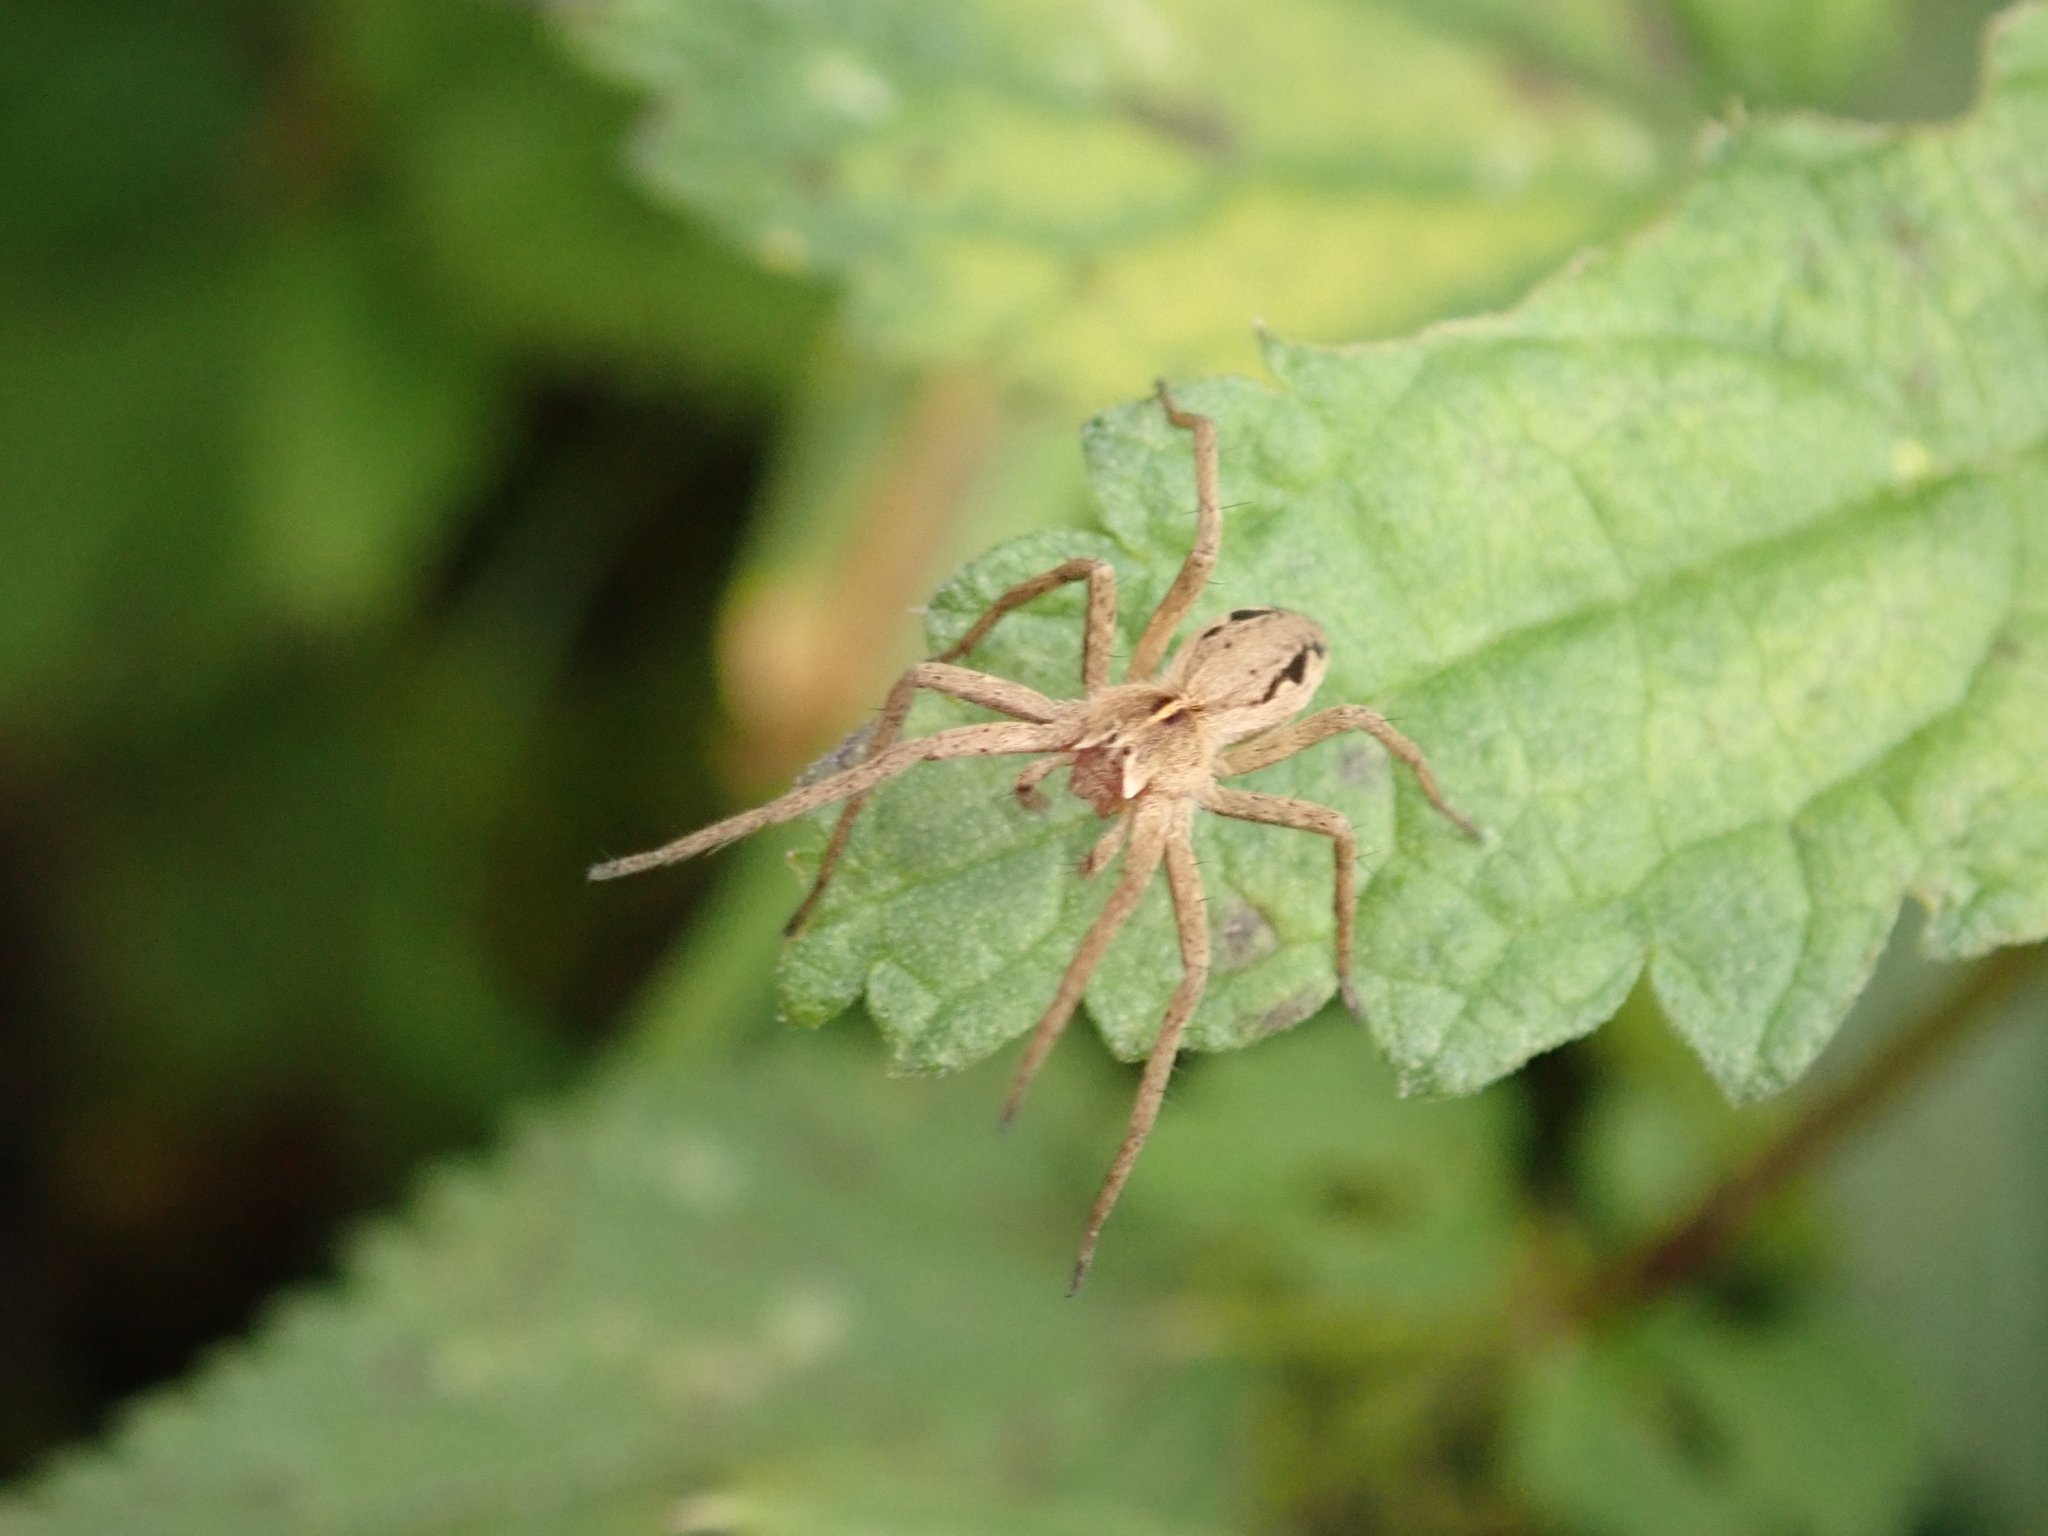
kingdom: Animalia
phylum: Arthropoda
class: Arachnida
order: Araneae
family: Pisauridae
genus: Pisaura
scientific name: Pisaura mirabilis
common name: Tent spider
